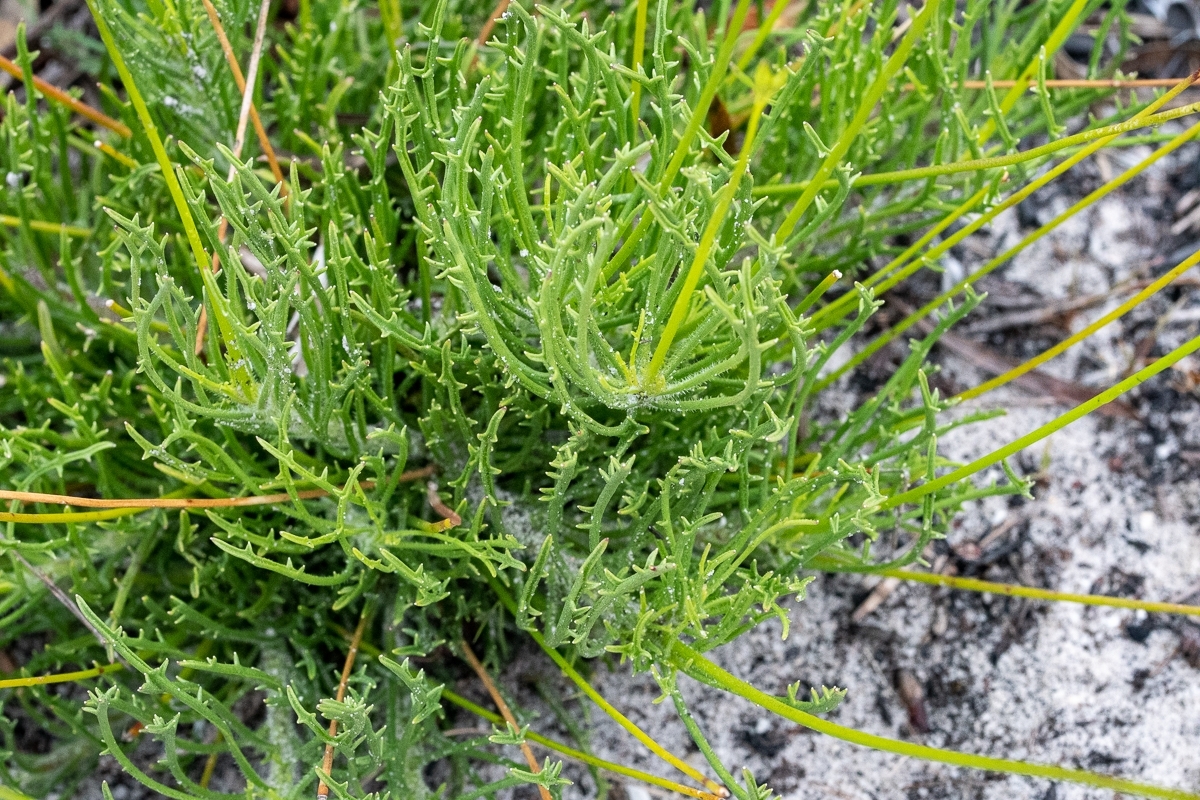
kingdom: Plantae
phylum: Tracheophyta
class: Magnoliopsida
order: Asterales
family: Campanulaceae
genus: Lobelia
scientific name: Lobelia coronopifolia
